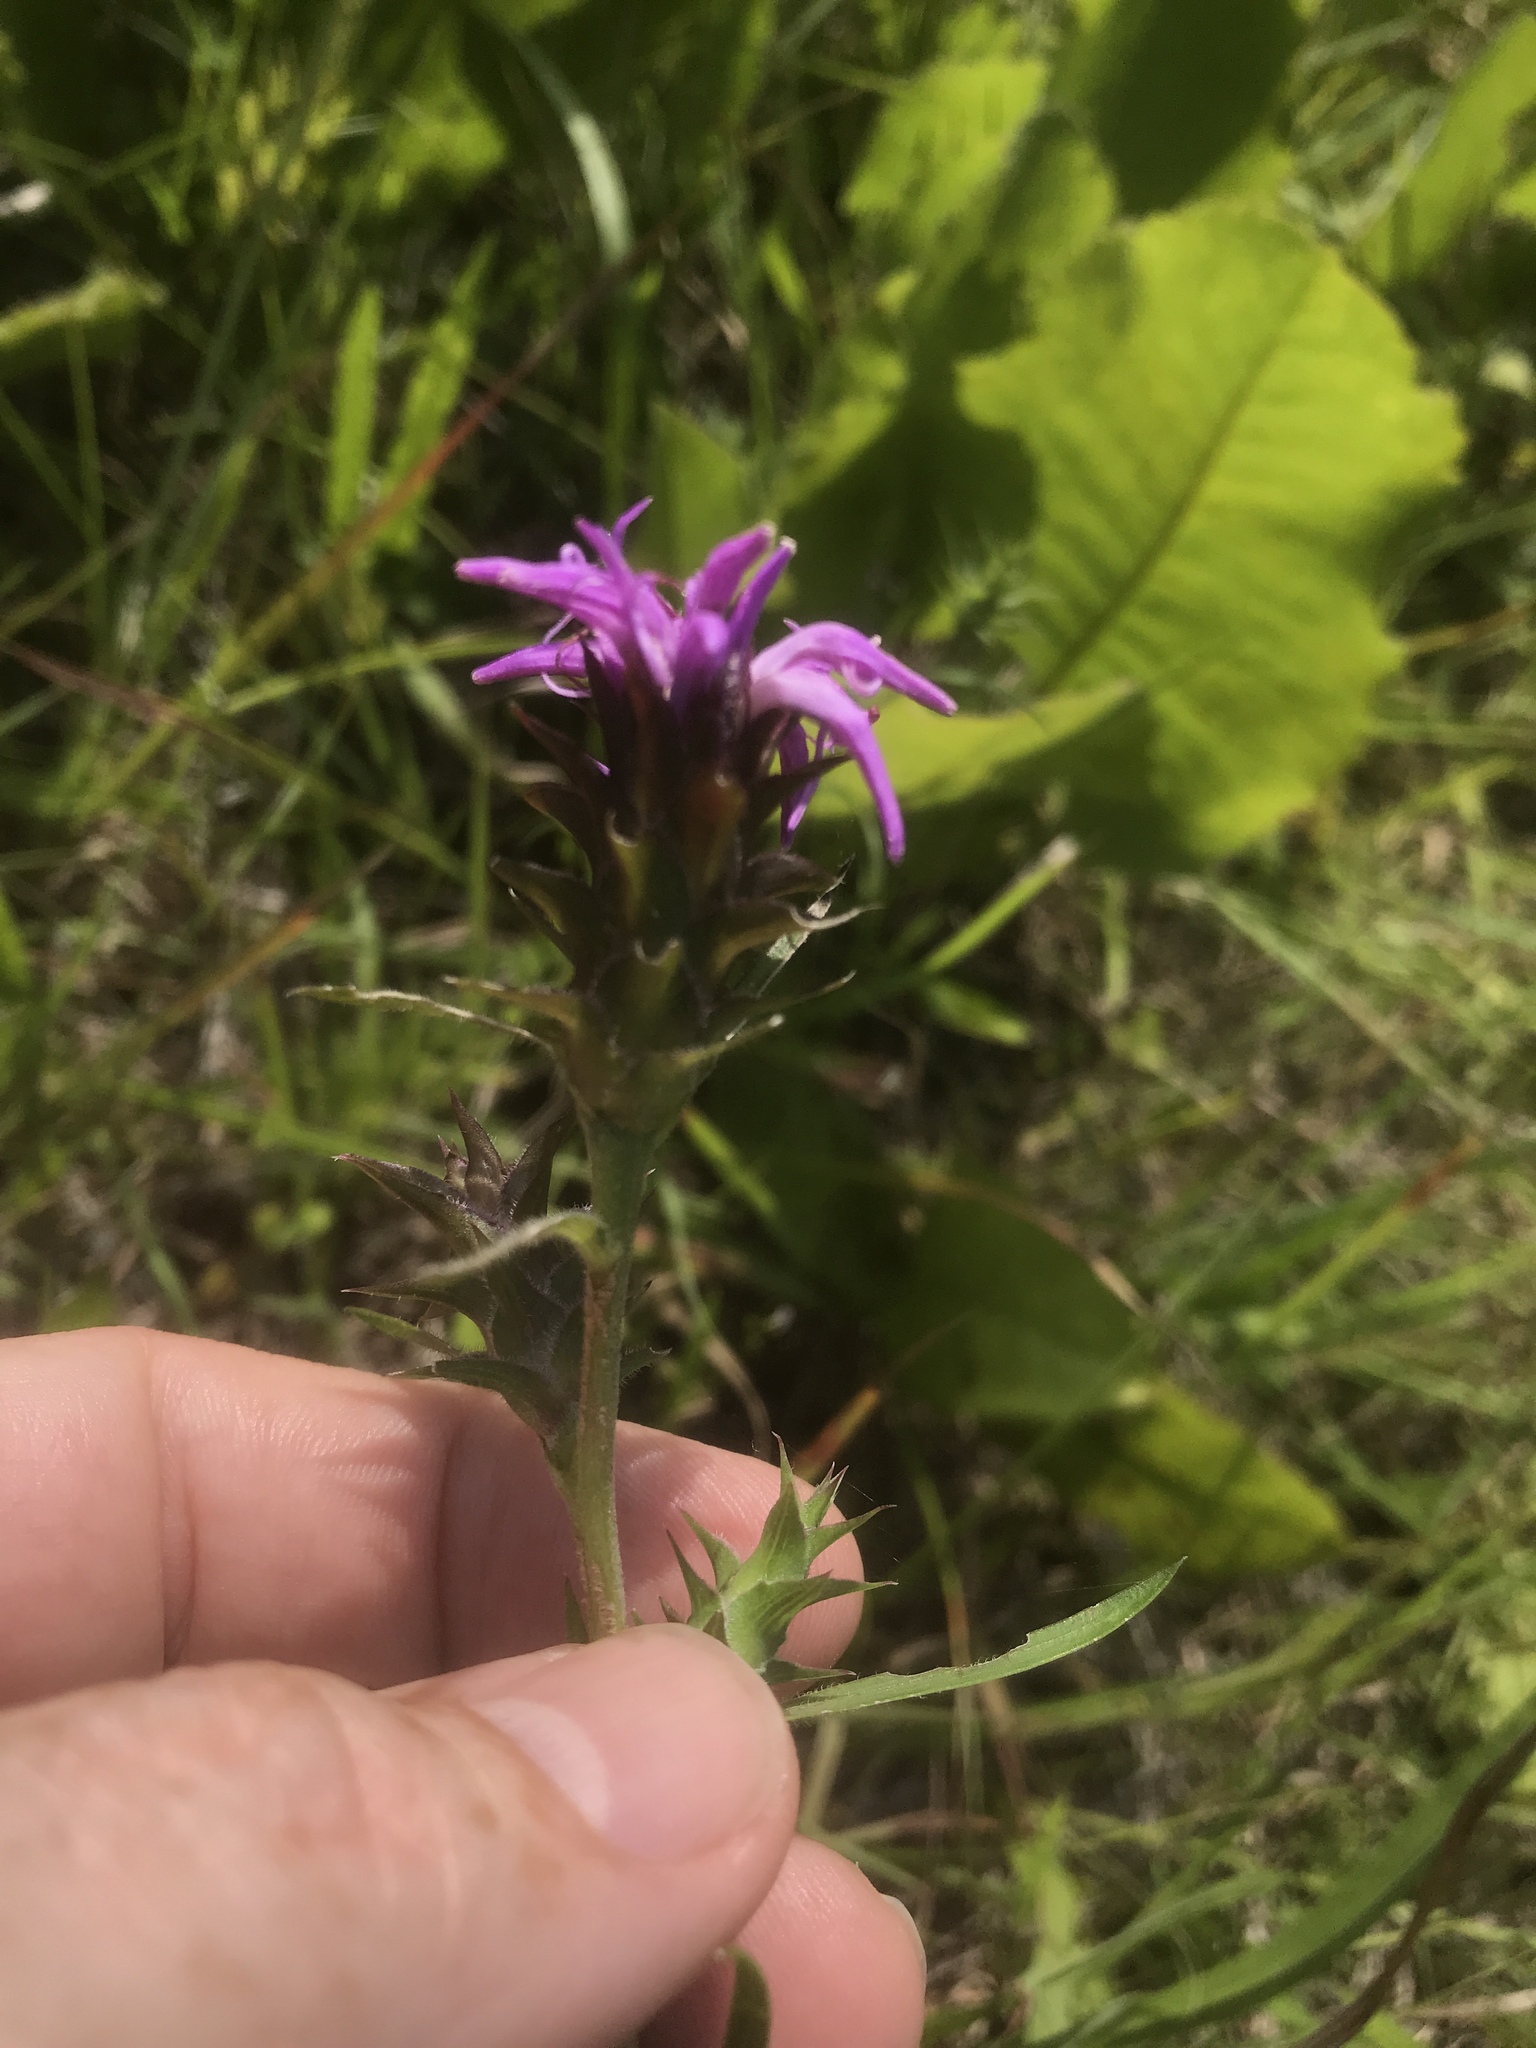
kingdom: Plantae
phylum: Tracheophyta
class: Magnoliopsida
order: Asterales
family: Asteraceae
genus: Liatris
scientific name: Liatris squarrosa
